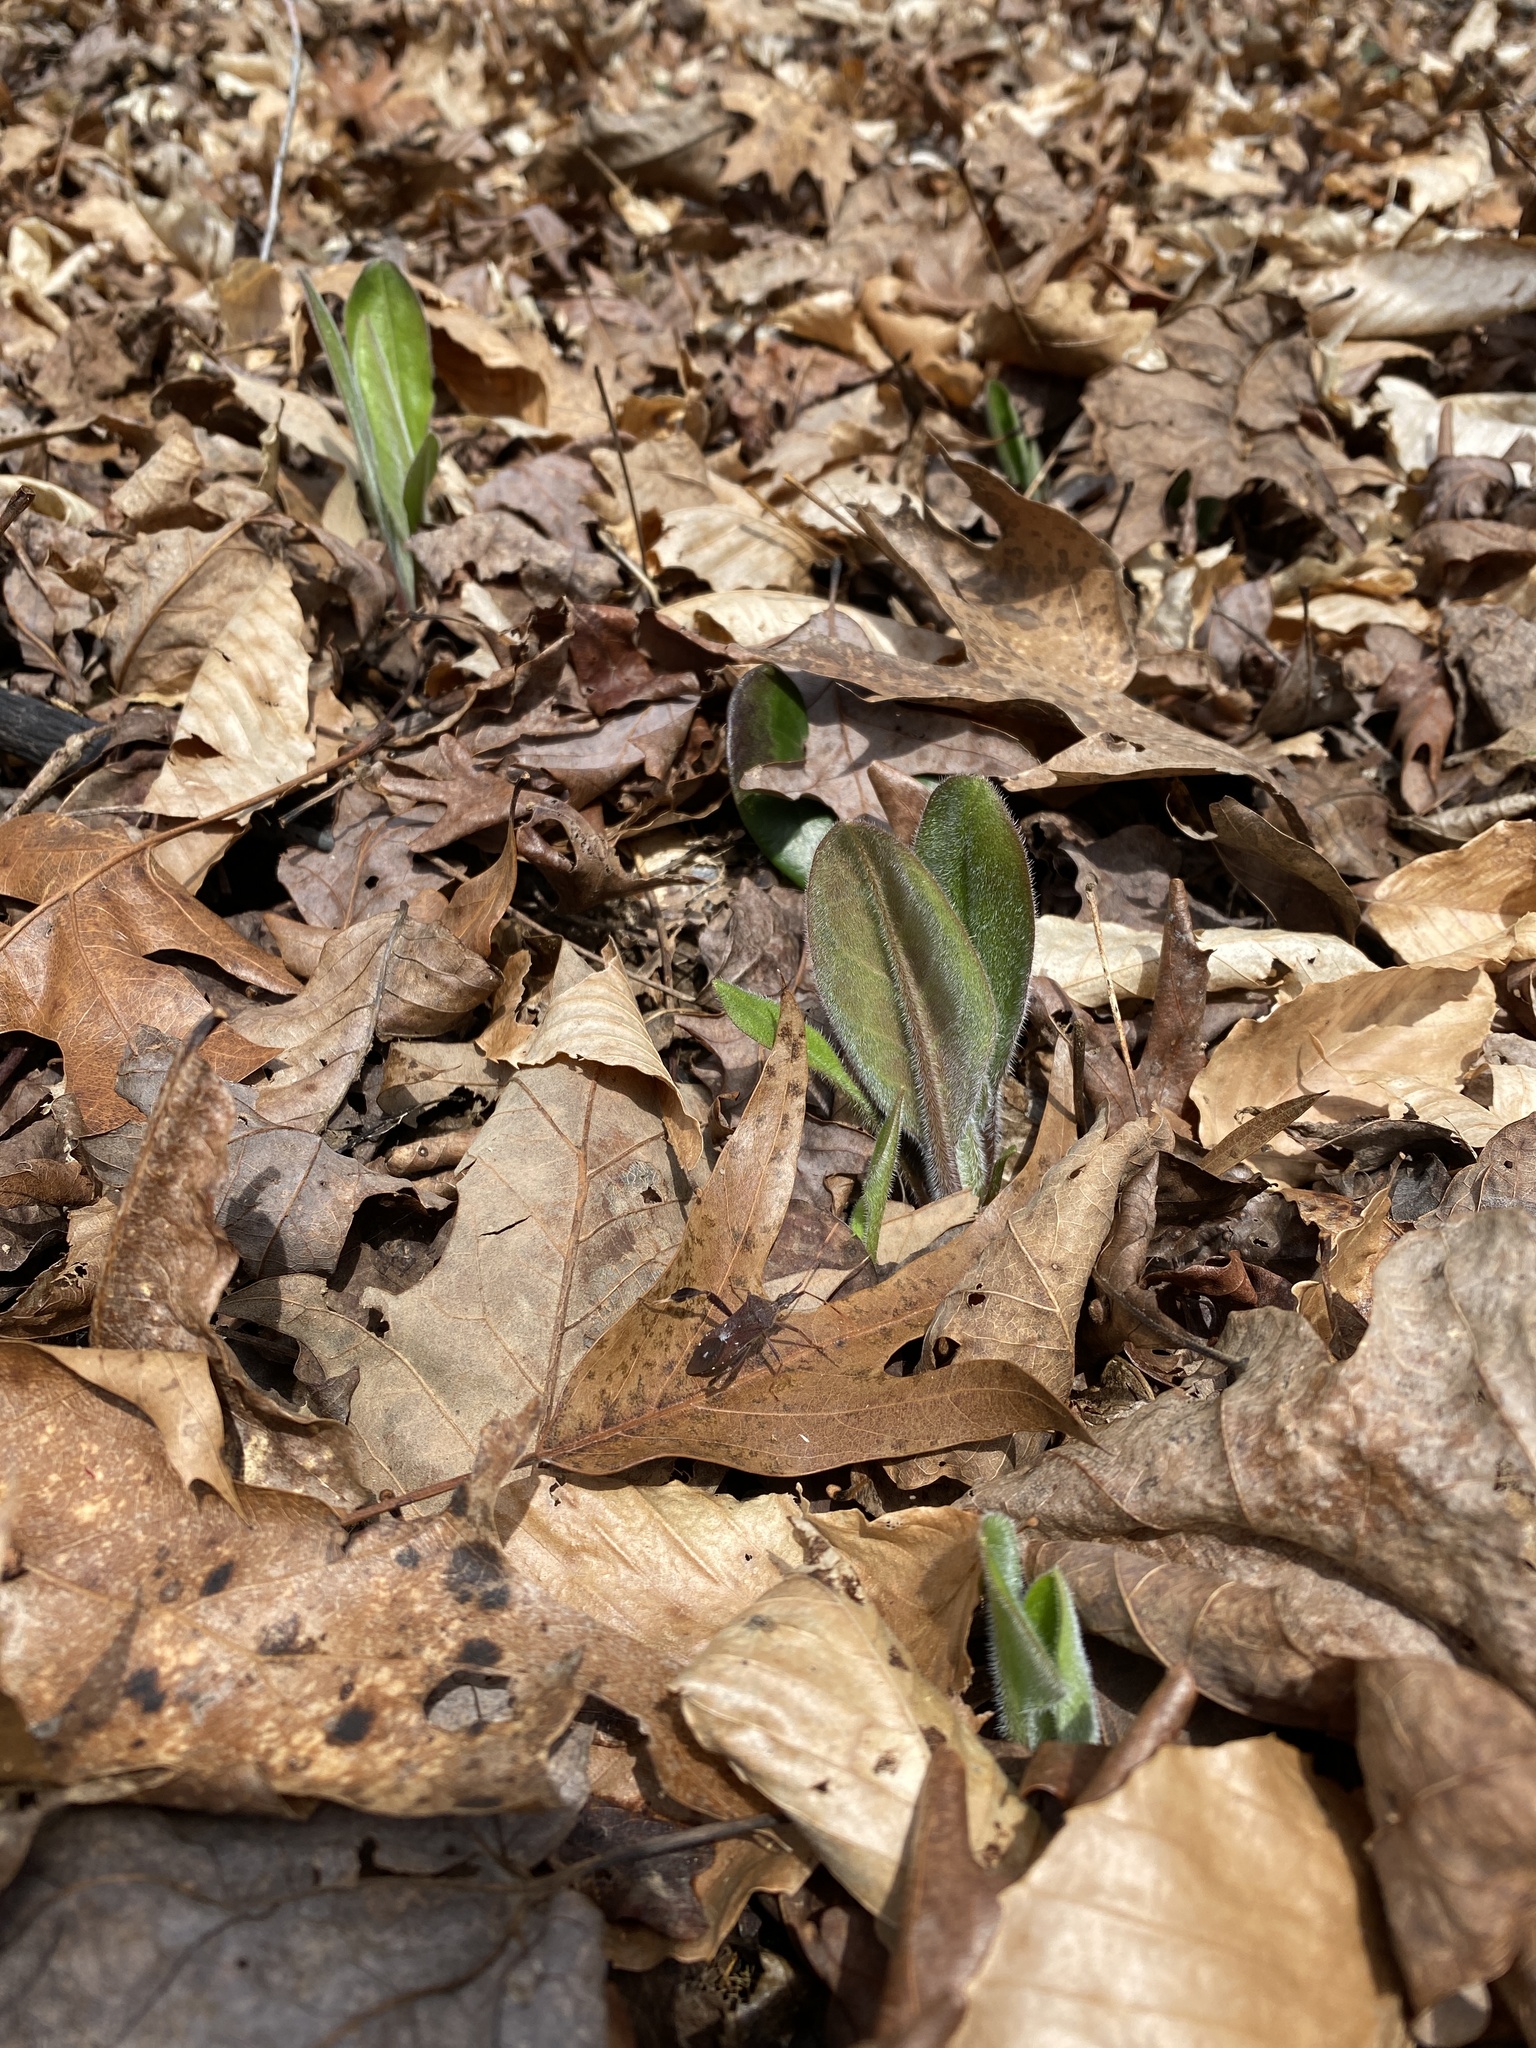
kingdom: Plantae
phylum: Tracheophyta
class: Magnoliopsida
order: Boraginales
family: Boraginaceae
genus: Andersonglossum
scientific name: Andersonglossum virginianum
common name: Wild comfrey
